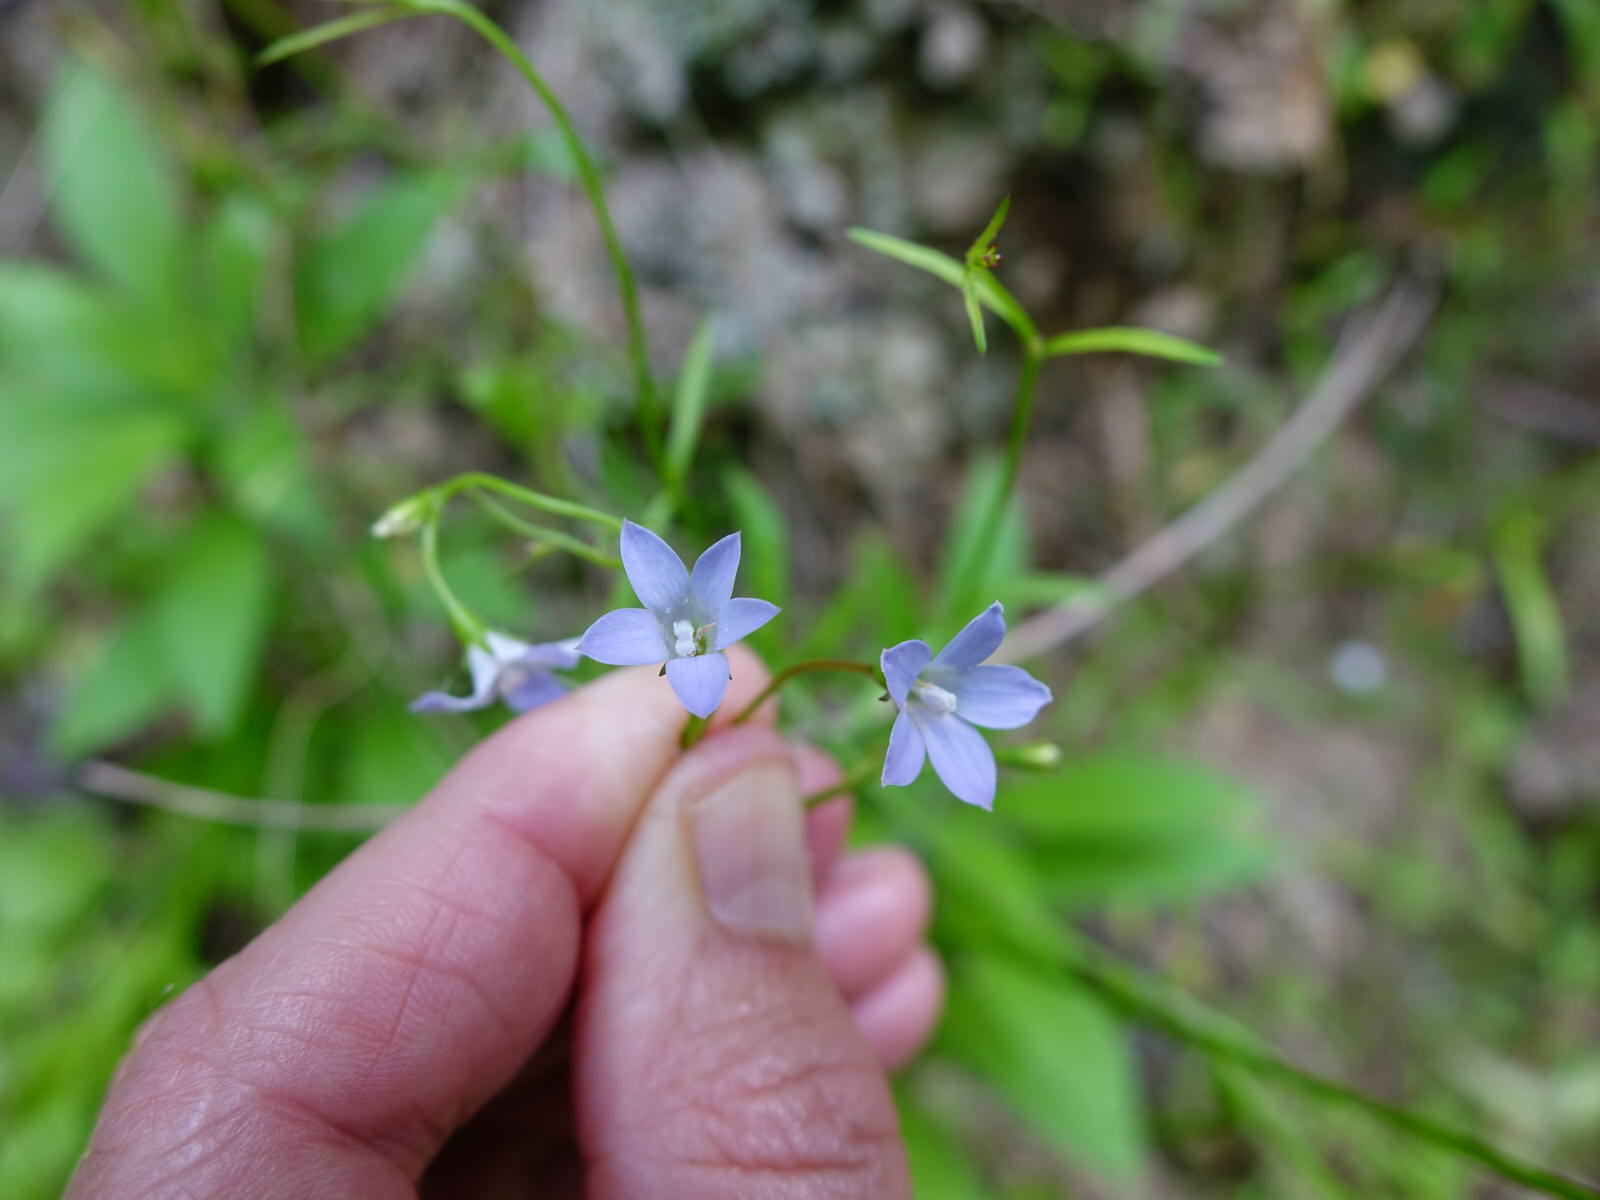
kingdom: Plantae
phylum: Tracheophyta
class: Magnoliopsida
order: Asterales
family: Campanulaceae
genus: Wahlenbergia
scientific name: Wahlenbergia violacea
